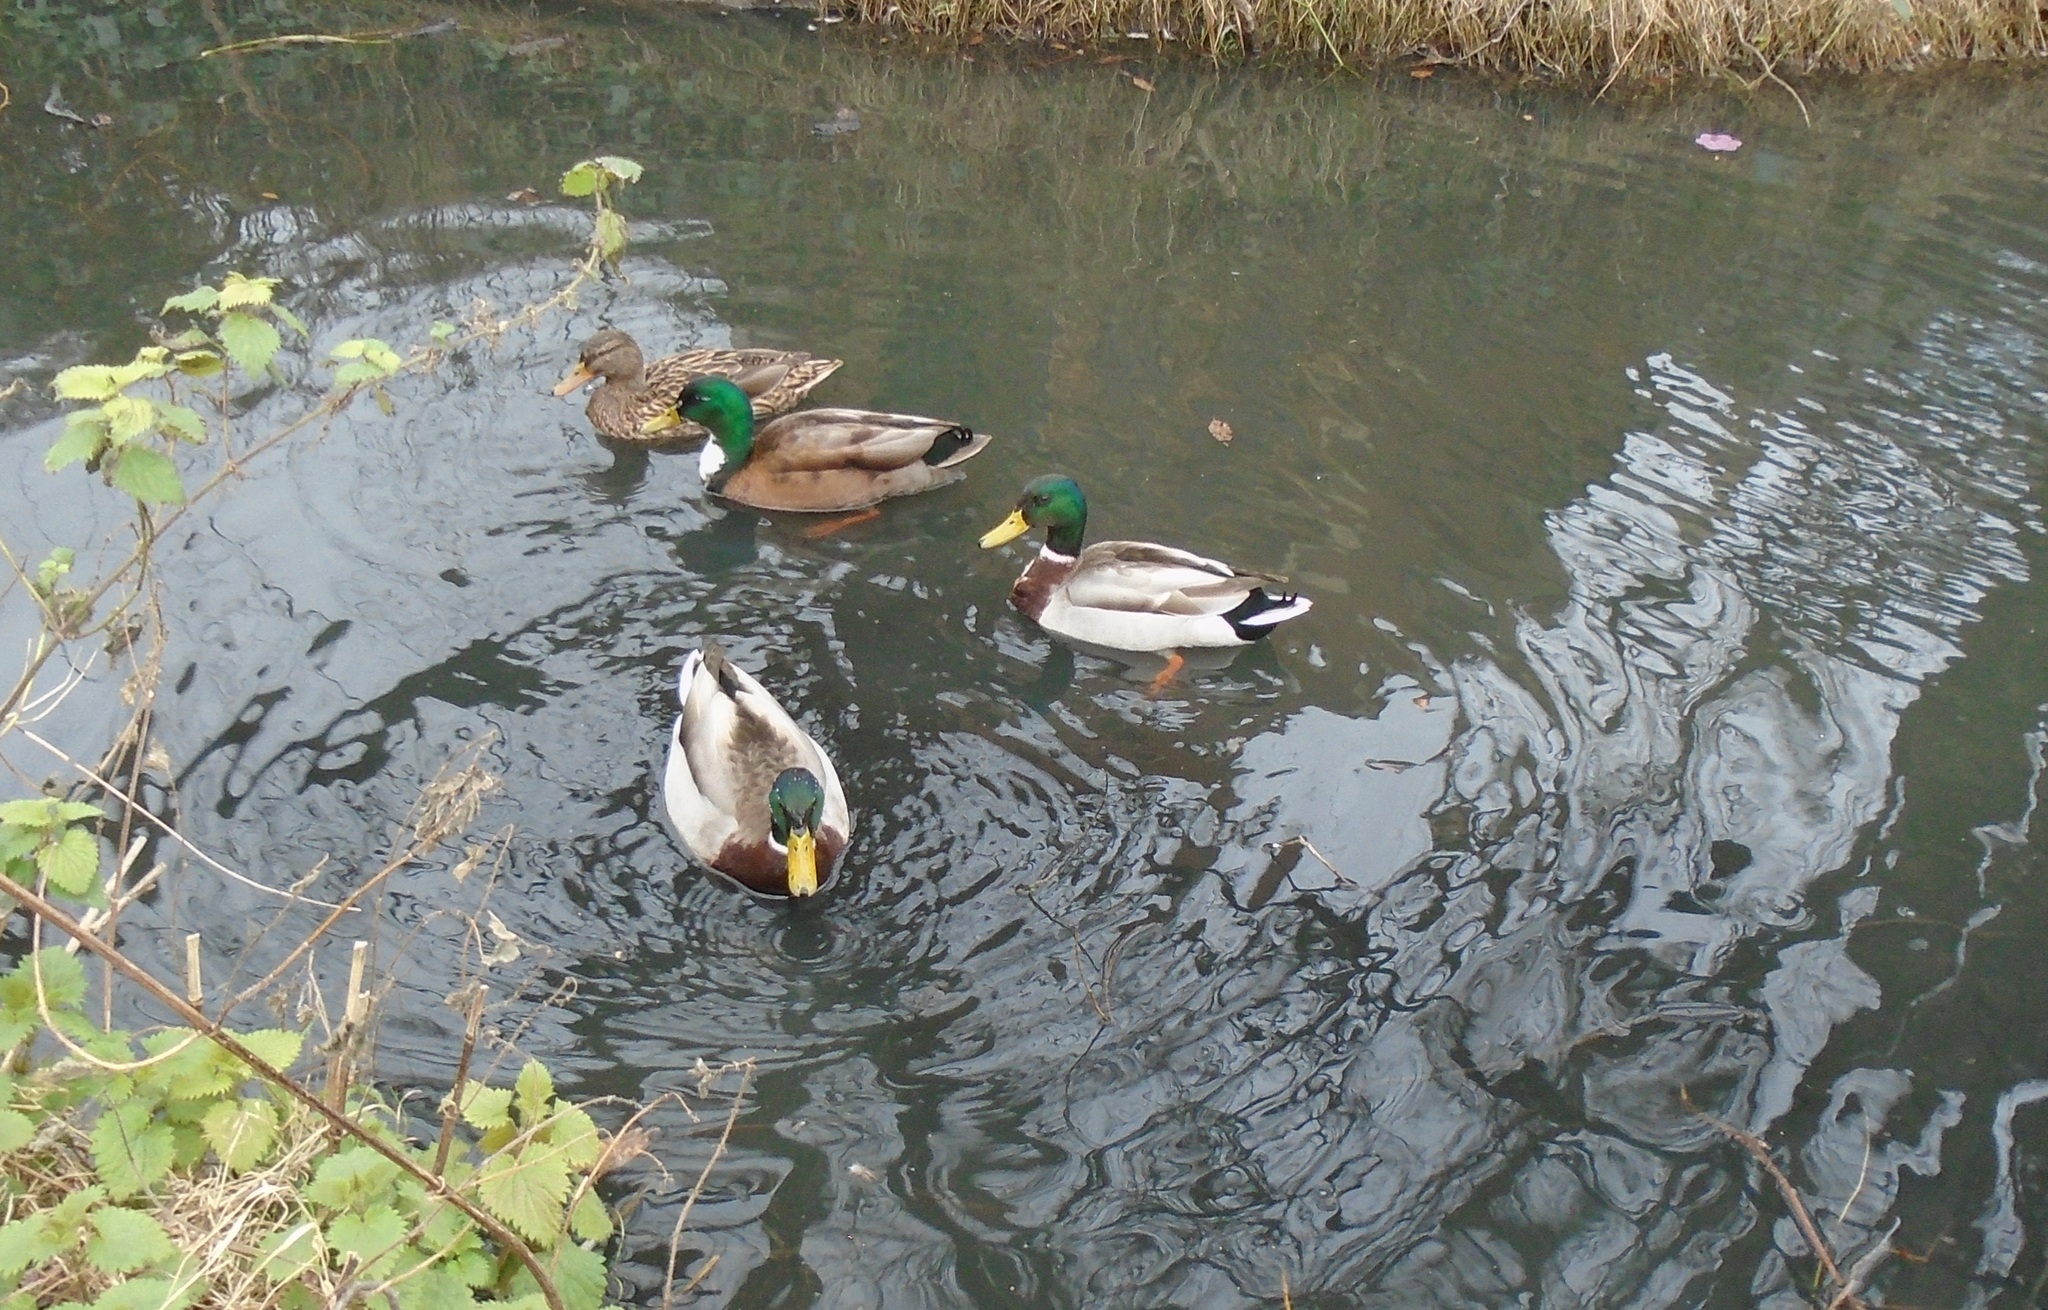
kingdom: Animalia
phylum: Chordata
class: Aves
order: Anseriformes
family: Anatidae
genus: Anas
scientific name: Anas platyrhynchos
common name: Mallard
